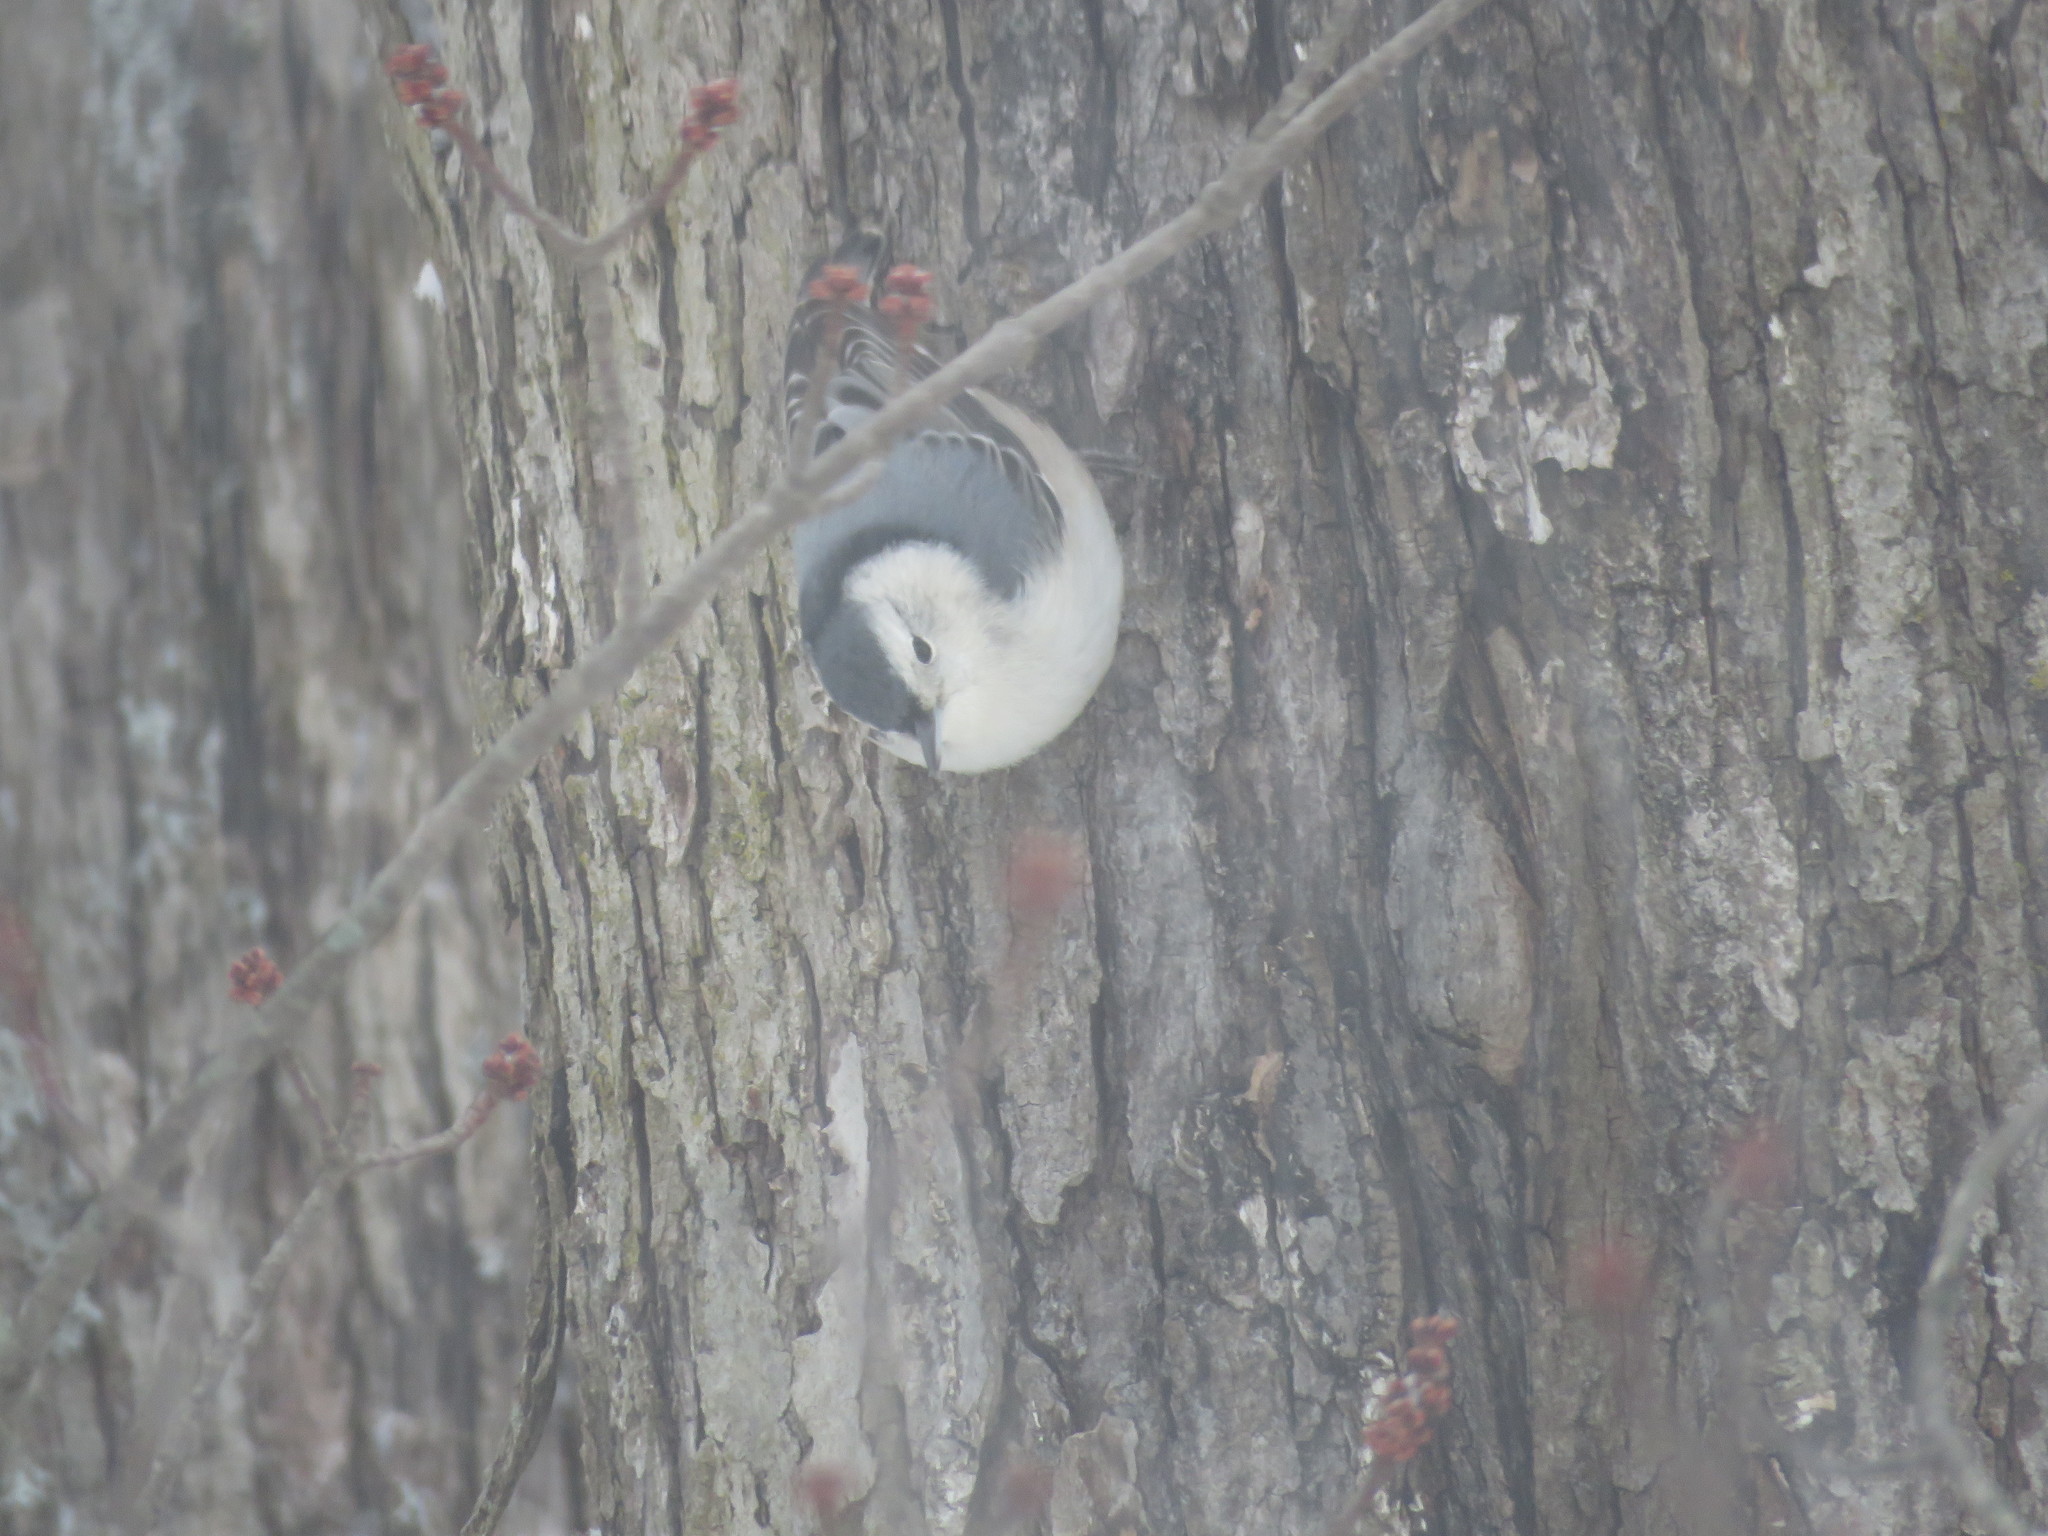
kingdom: Animalia
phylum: Chordata
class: Aves
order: Passeriformes
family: Sittidae
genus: Sitta
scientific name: Sitta carolinensis
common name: White-breasted nuthatch
